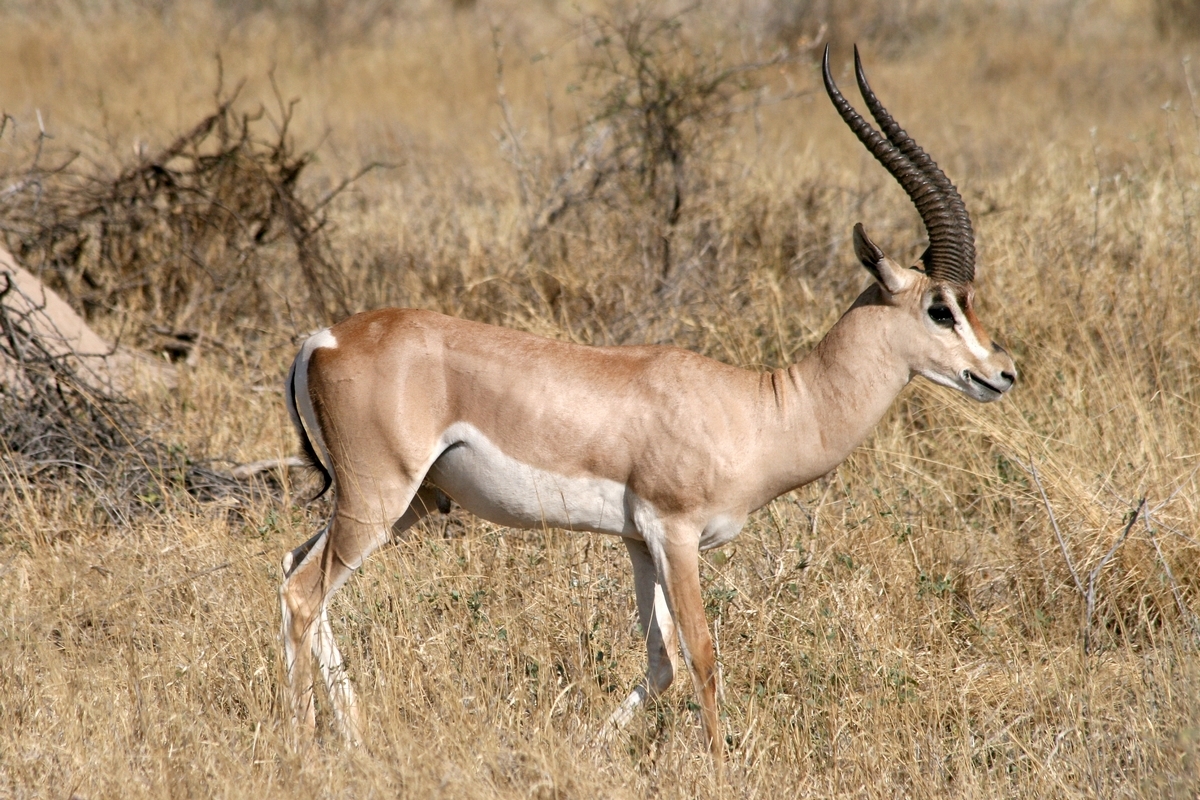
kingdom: Animalia
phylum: Chordata
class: Mammalia
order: Artiodactyla
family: Bovidae
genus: Nanger
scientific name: Nanger granti
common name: Grant's gazelle
